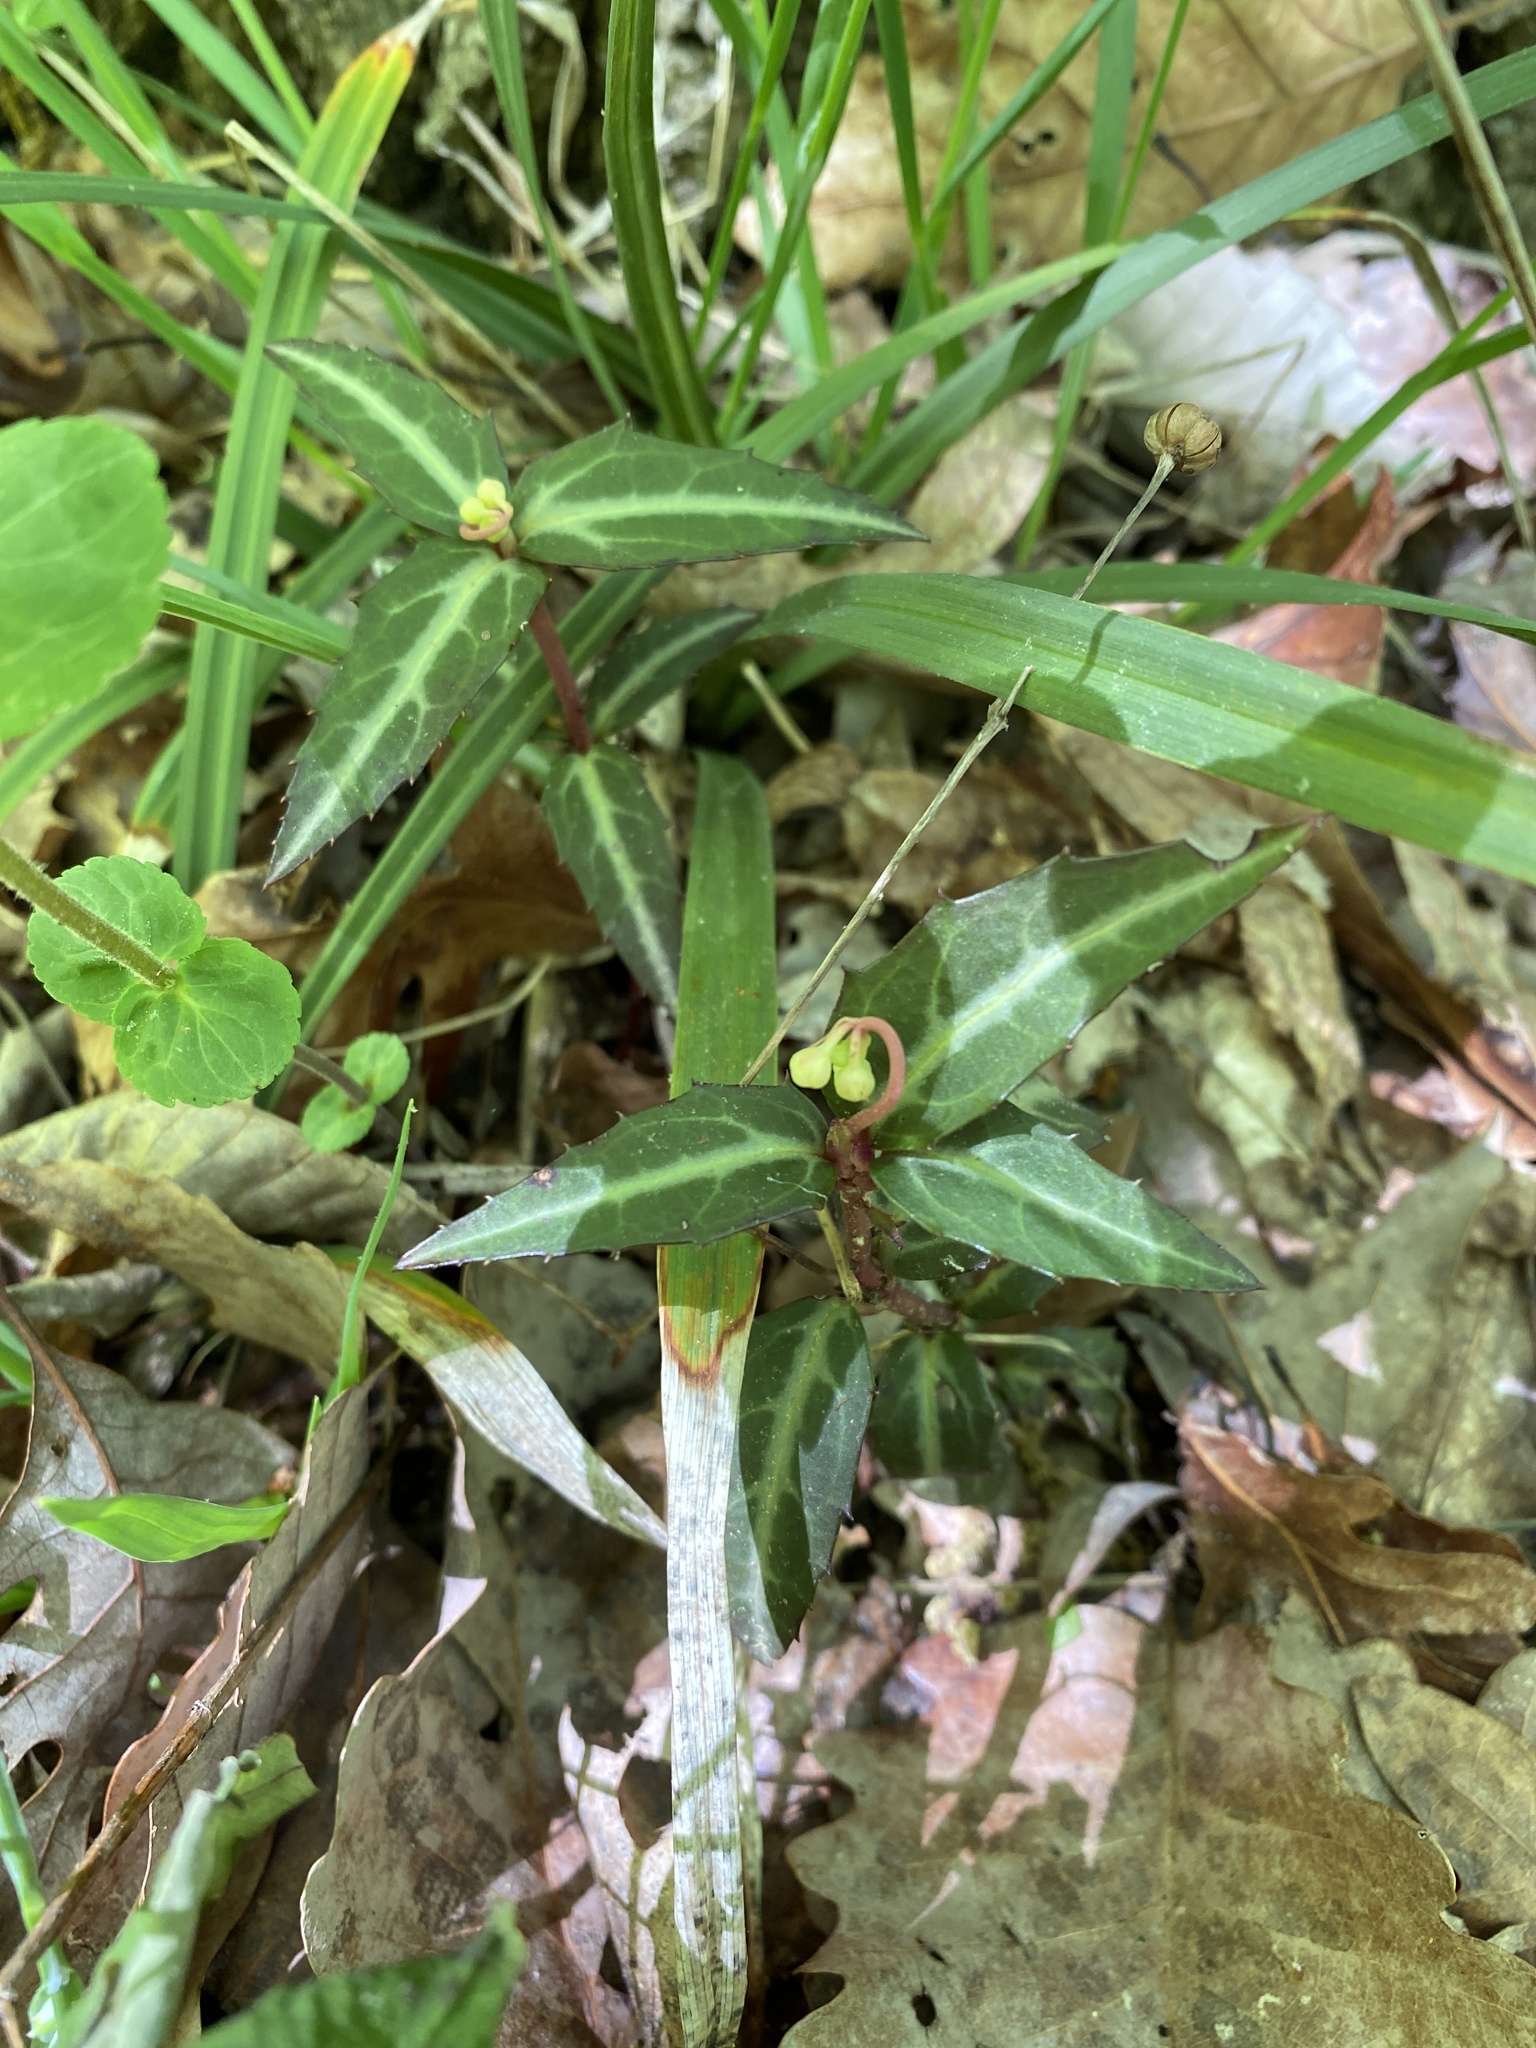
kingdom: Plantae
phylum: Tracheophyta
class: Magnoliopsida
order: Ericales
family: Ericaceae
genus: Chimaphila
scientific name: Chimaphila maculata
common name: Spotted pipsissewa
